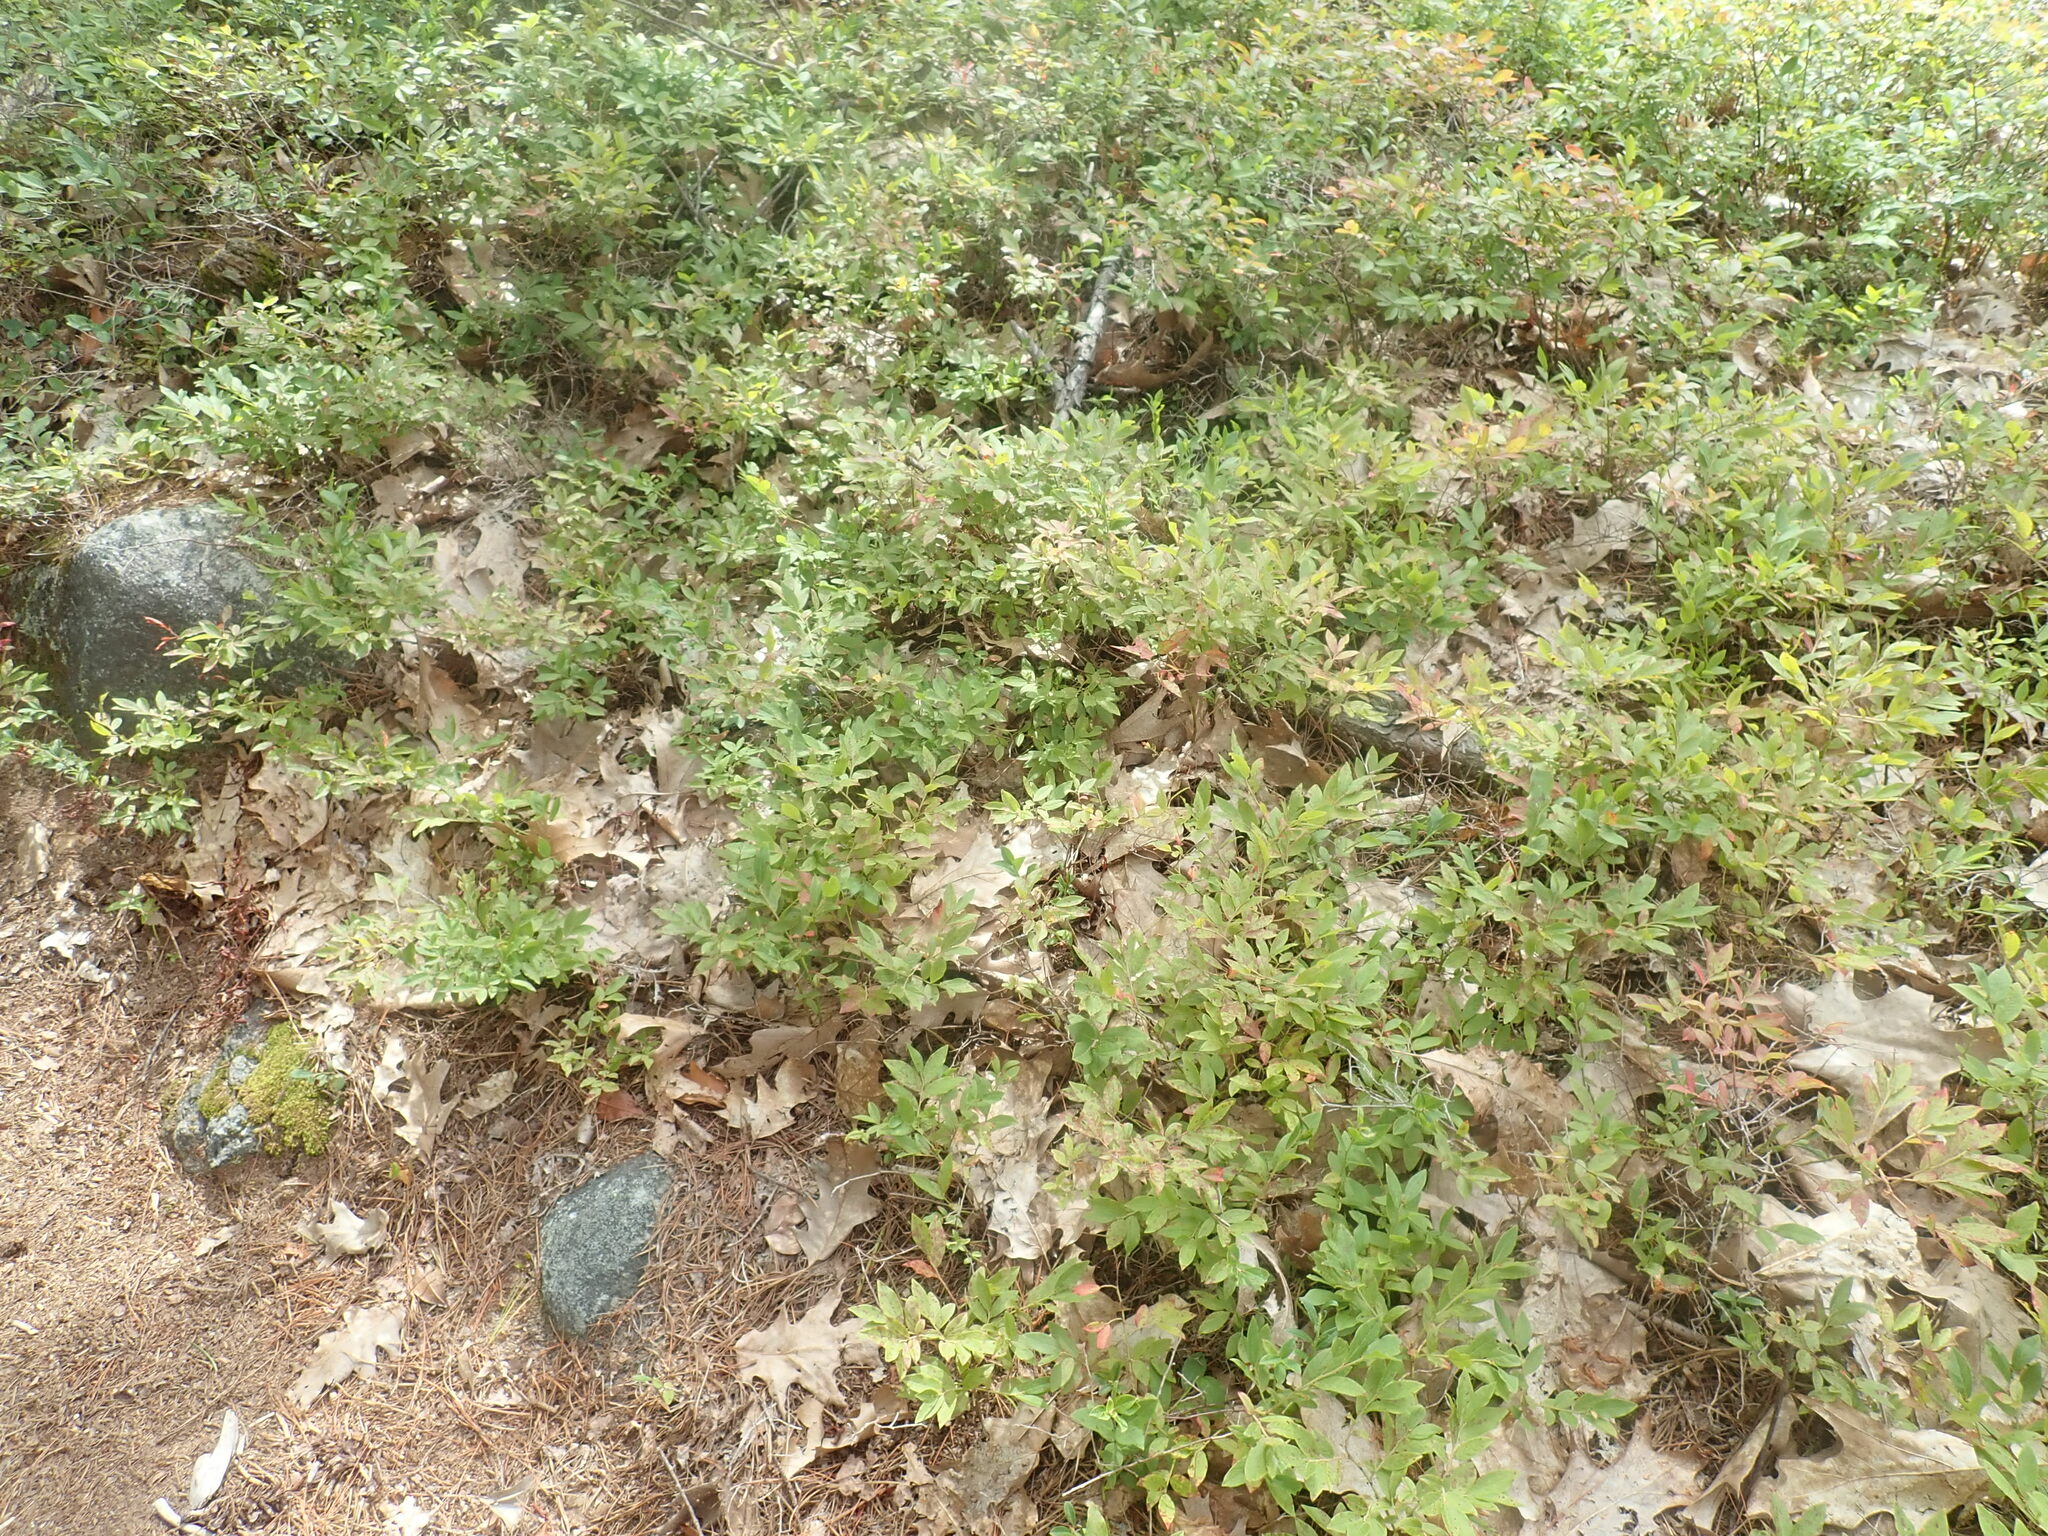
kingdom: Plantae
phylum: Tracheophyta
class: Magnoliopsida
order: Ericales
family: Ericaceae
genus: Vaccinium
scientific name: Vaccinium angustifolium
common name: Early lowbush blueberry
